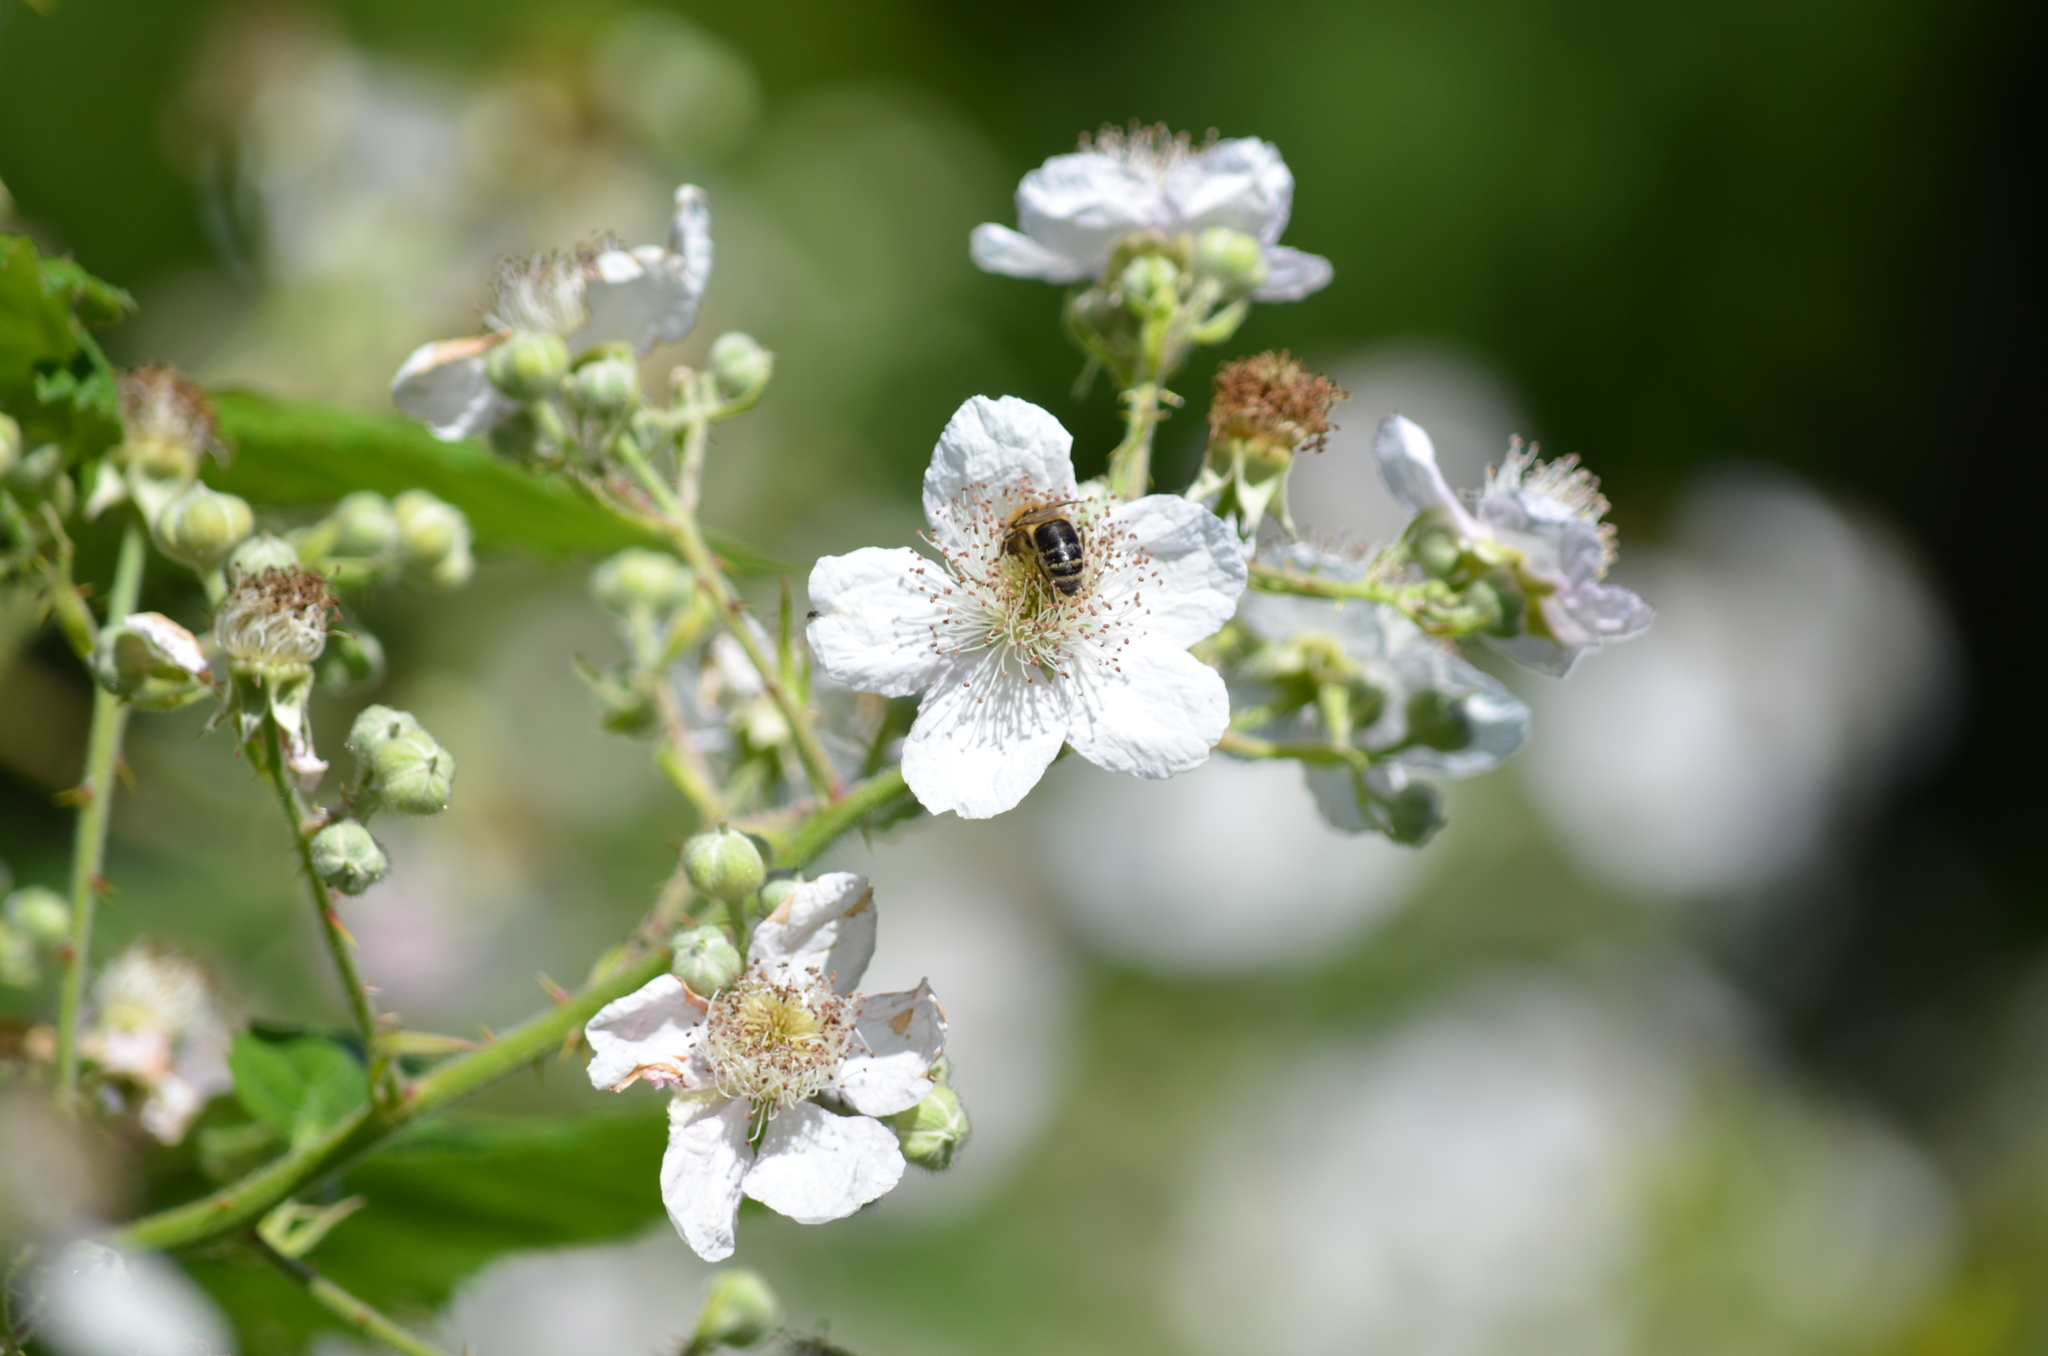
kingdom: Animalia
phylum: Arthropoda
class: Insecta
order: Hymenoptera
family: Apidae
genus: Apis
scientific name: Apis mellifera
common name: Honey bee
